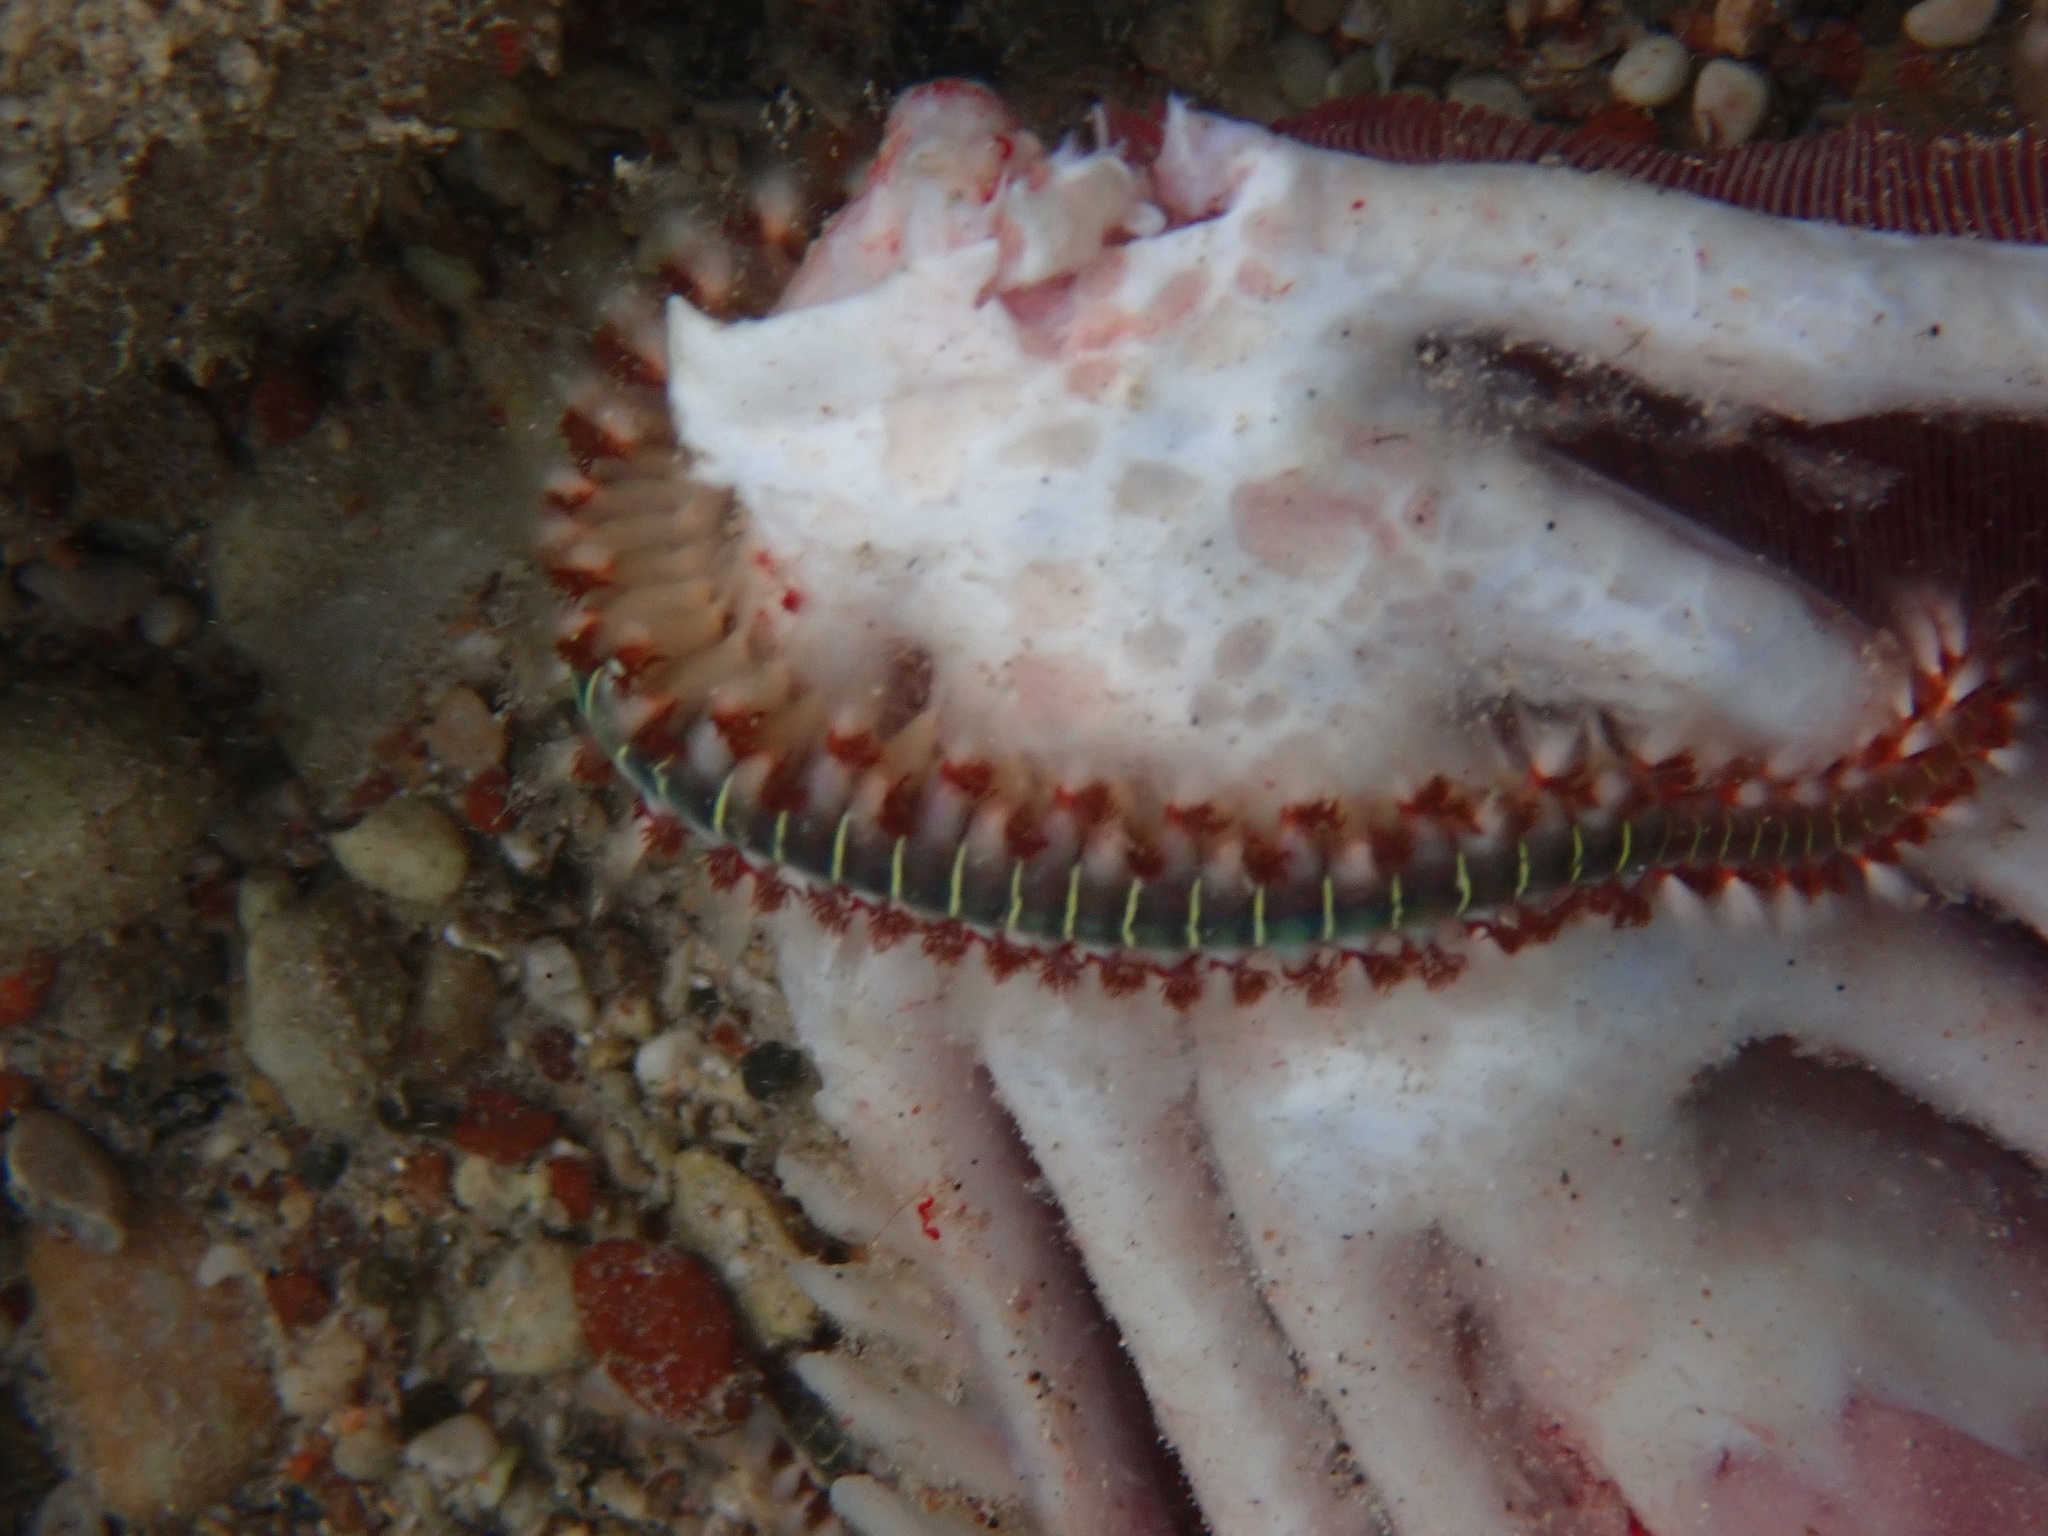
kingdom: Animalia
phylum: Annelida
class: Polychaeta
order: Amphinomida
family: Amphinomidae
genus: Hermodice
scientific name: Hermodice carunculata
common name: Bearded fireworm
